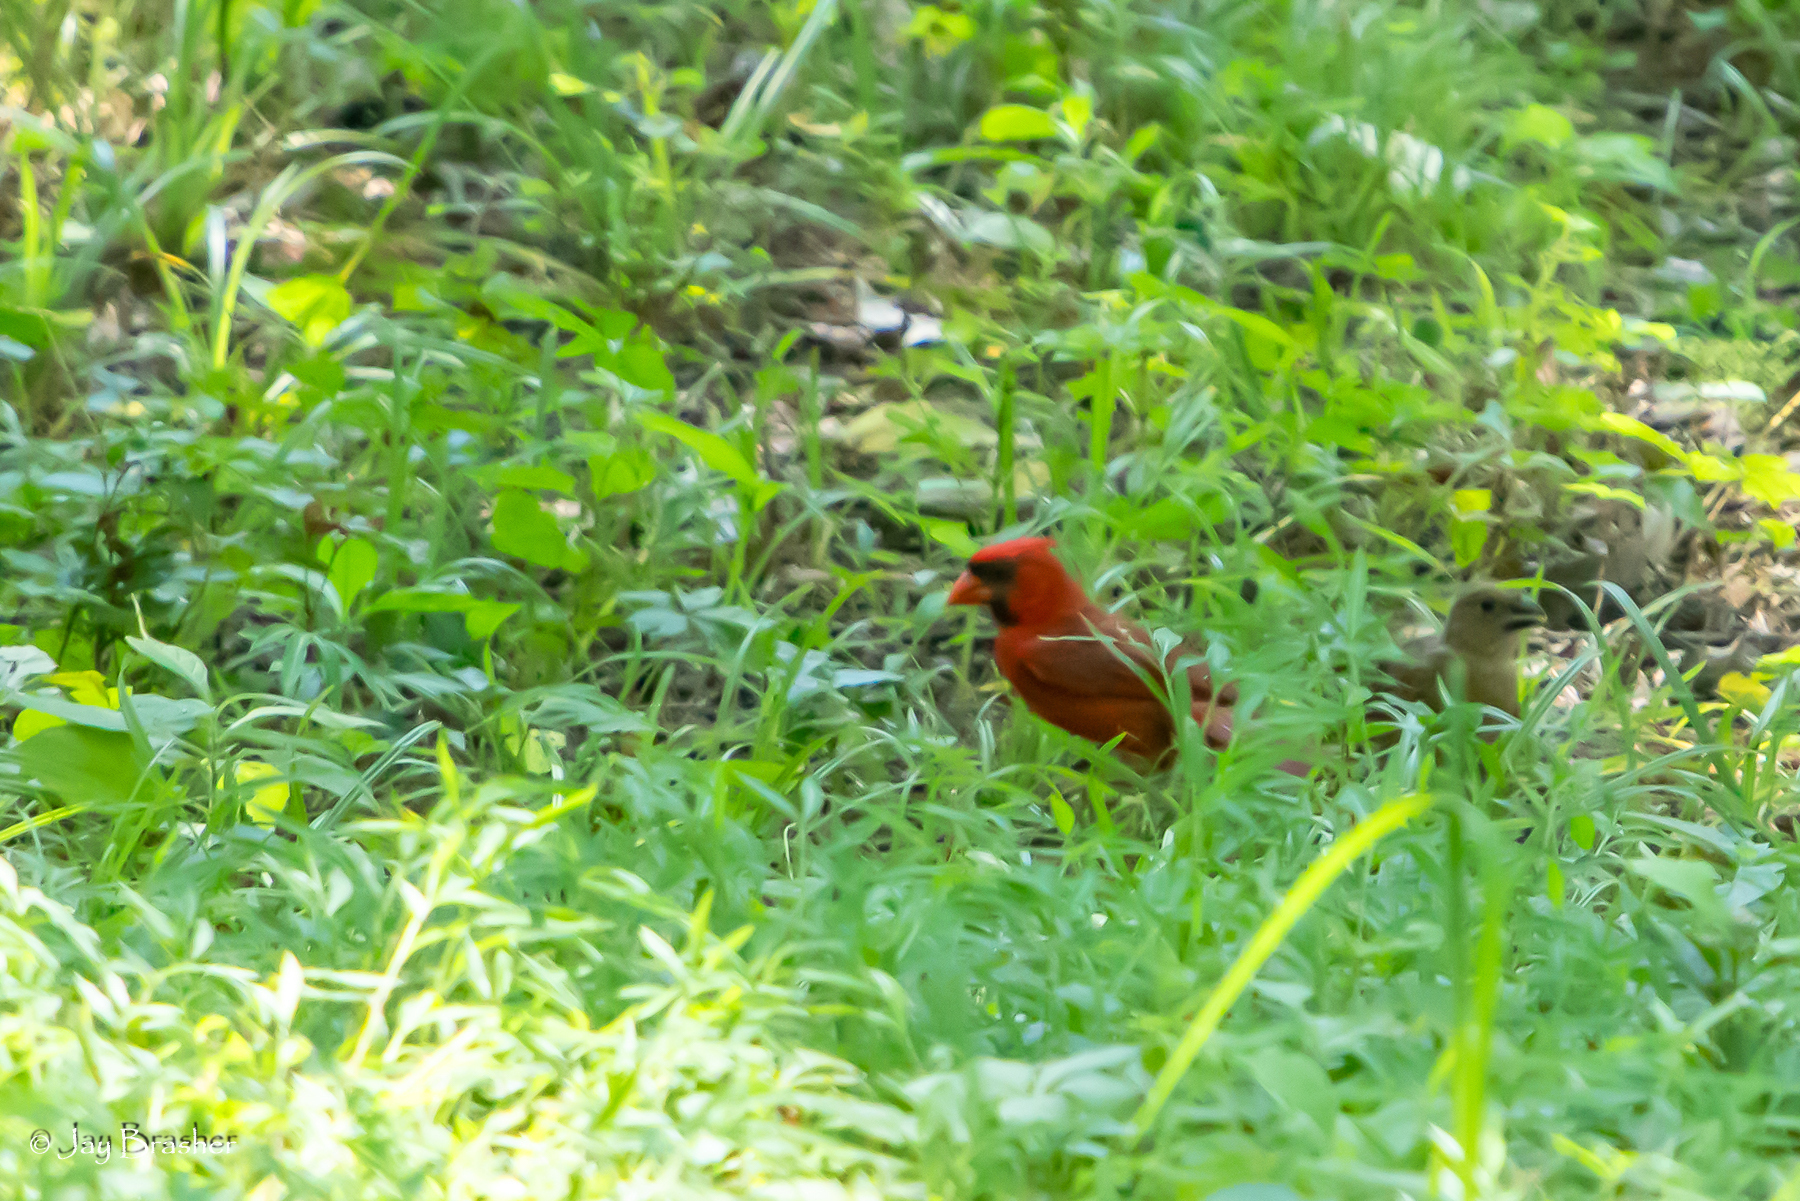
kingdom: Animalia
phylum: Chordata
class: Aves
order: Passeriformes
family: Cardinalidae
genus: Cardinalis
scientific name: Cardinalis cardinalis
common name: Northern cardinal
